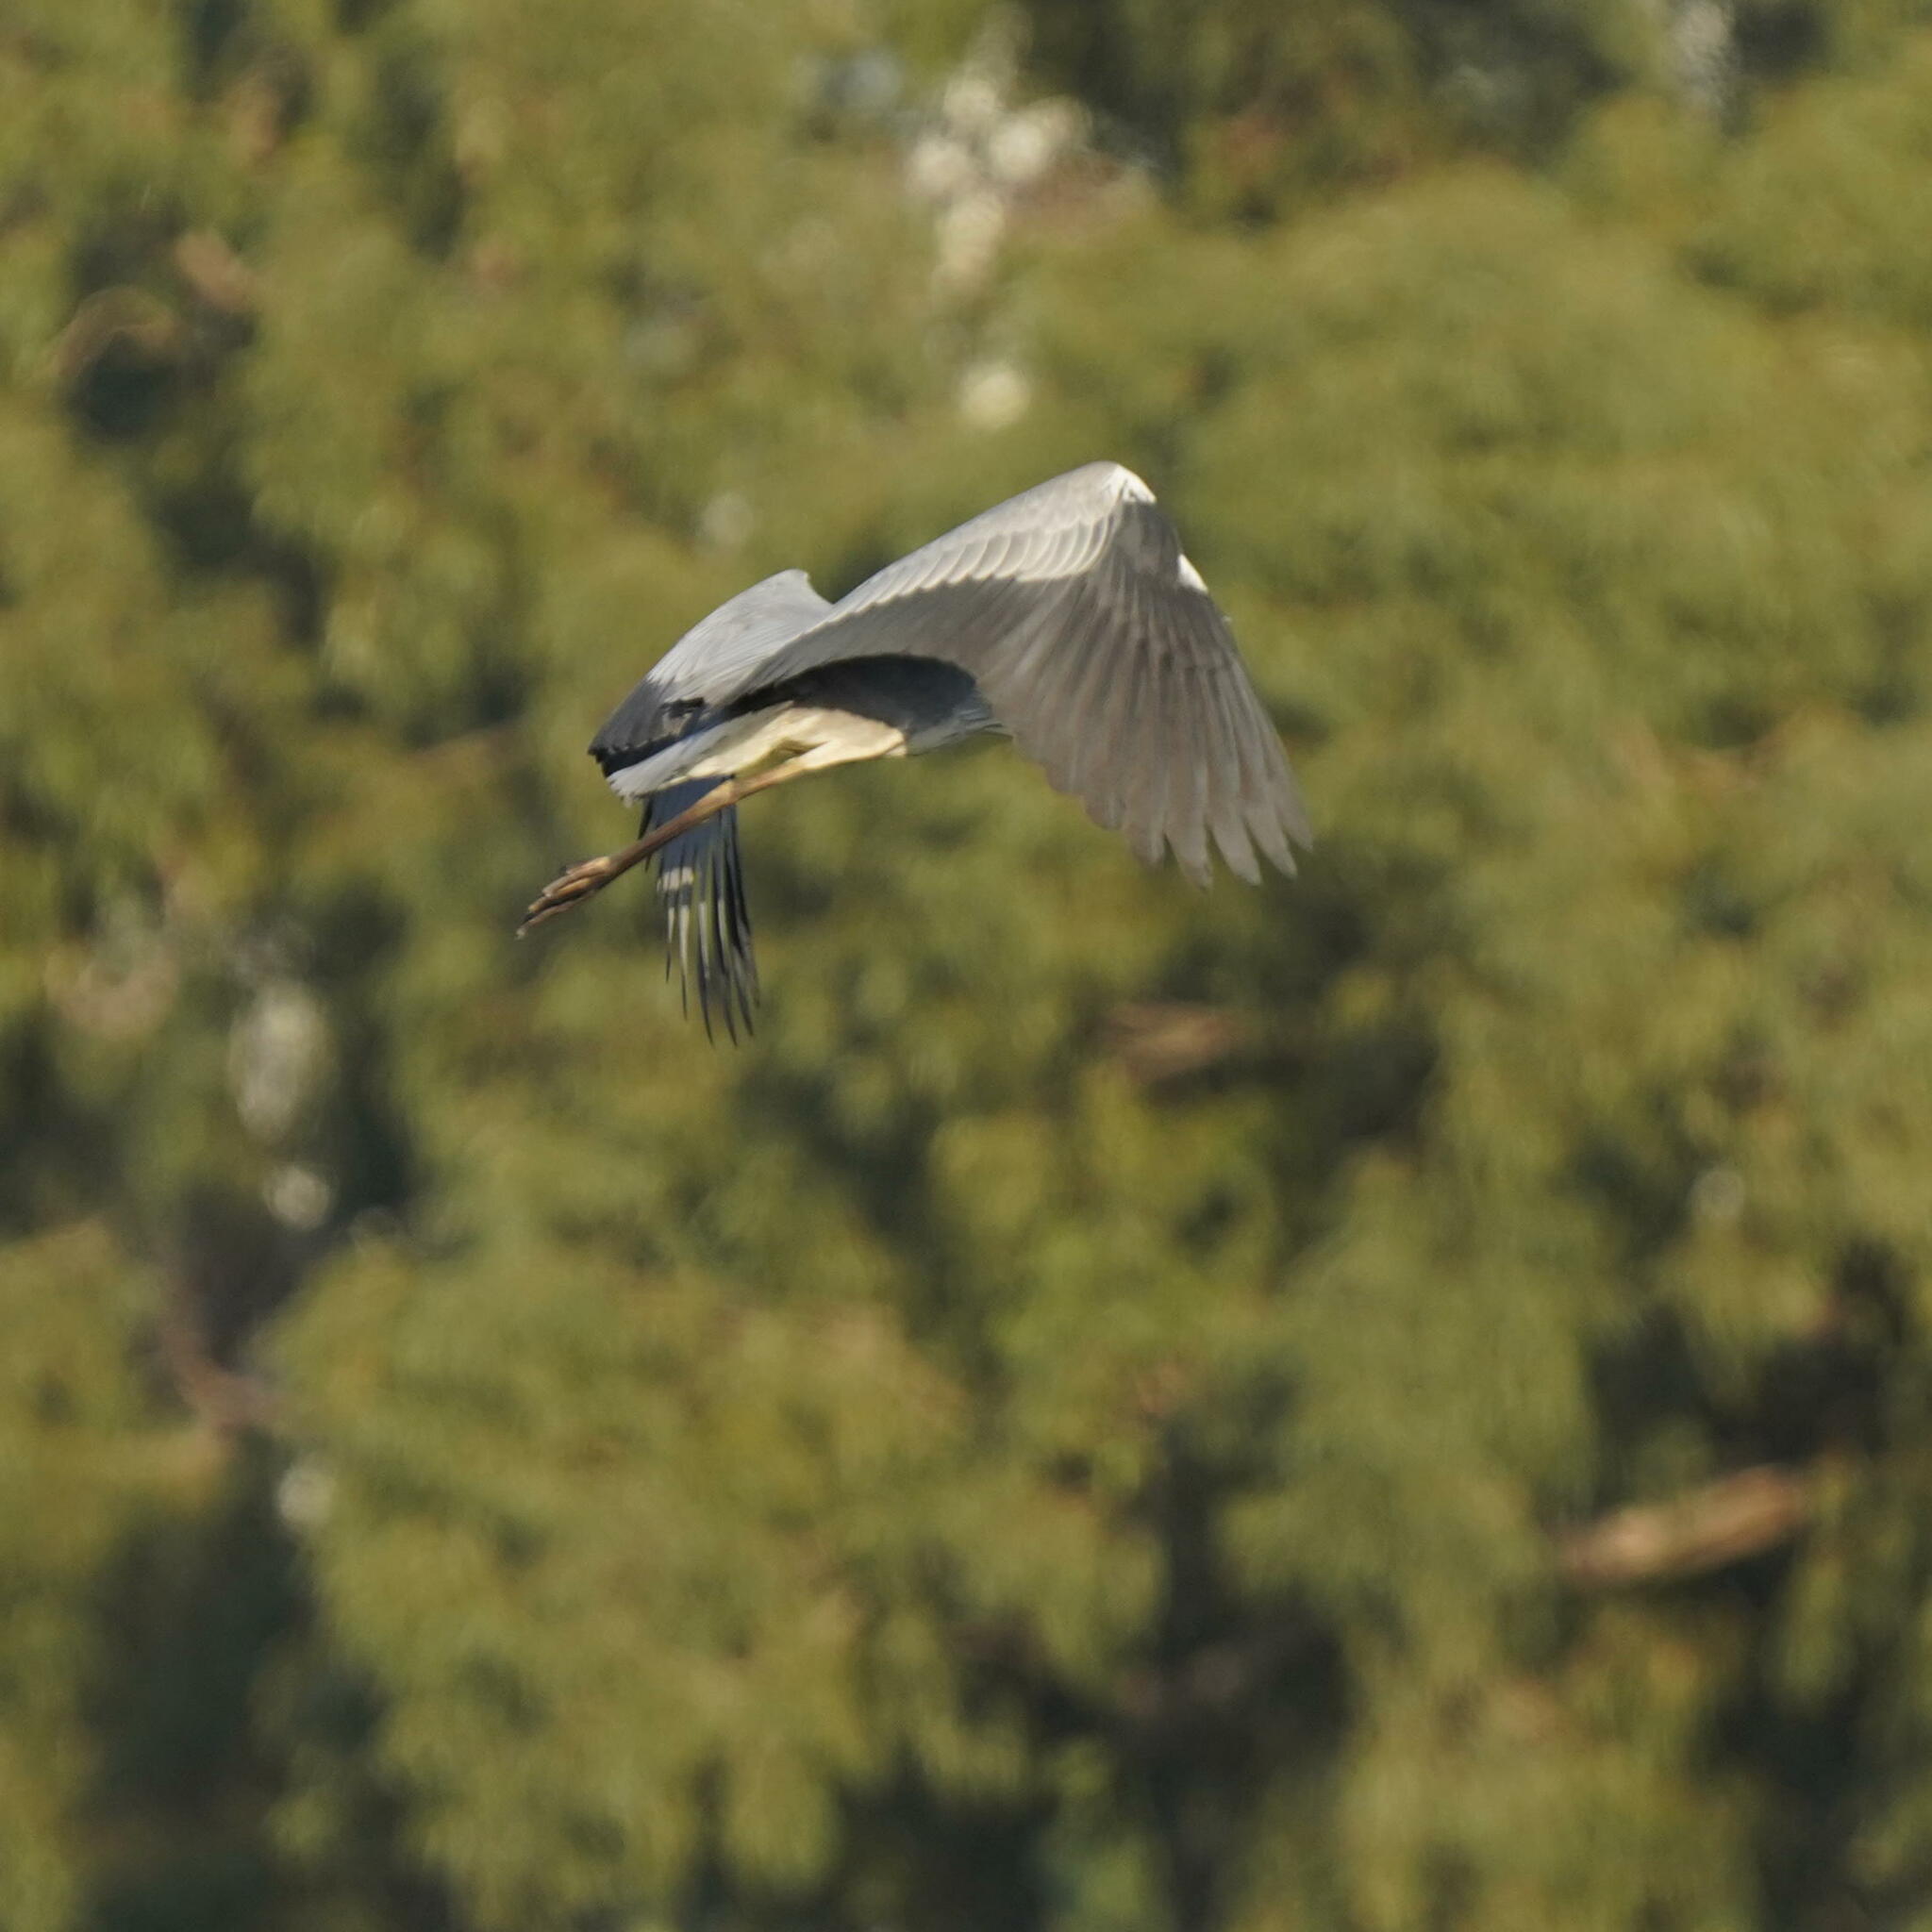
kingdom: Animalia
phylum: Chordata
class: Aves
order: Pelecaniformes
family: Ardeidae
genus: Ardea
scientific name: Ardea cinerea
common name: Grey heron
